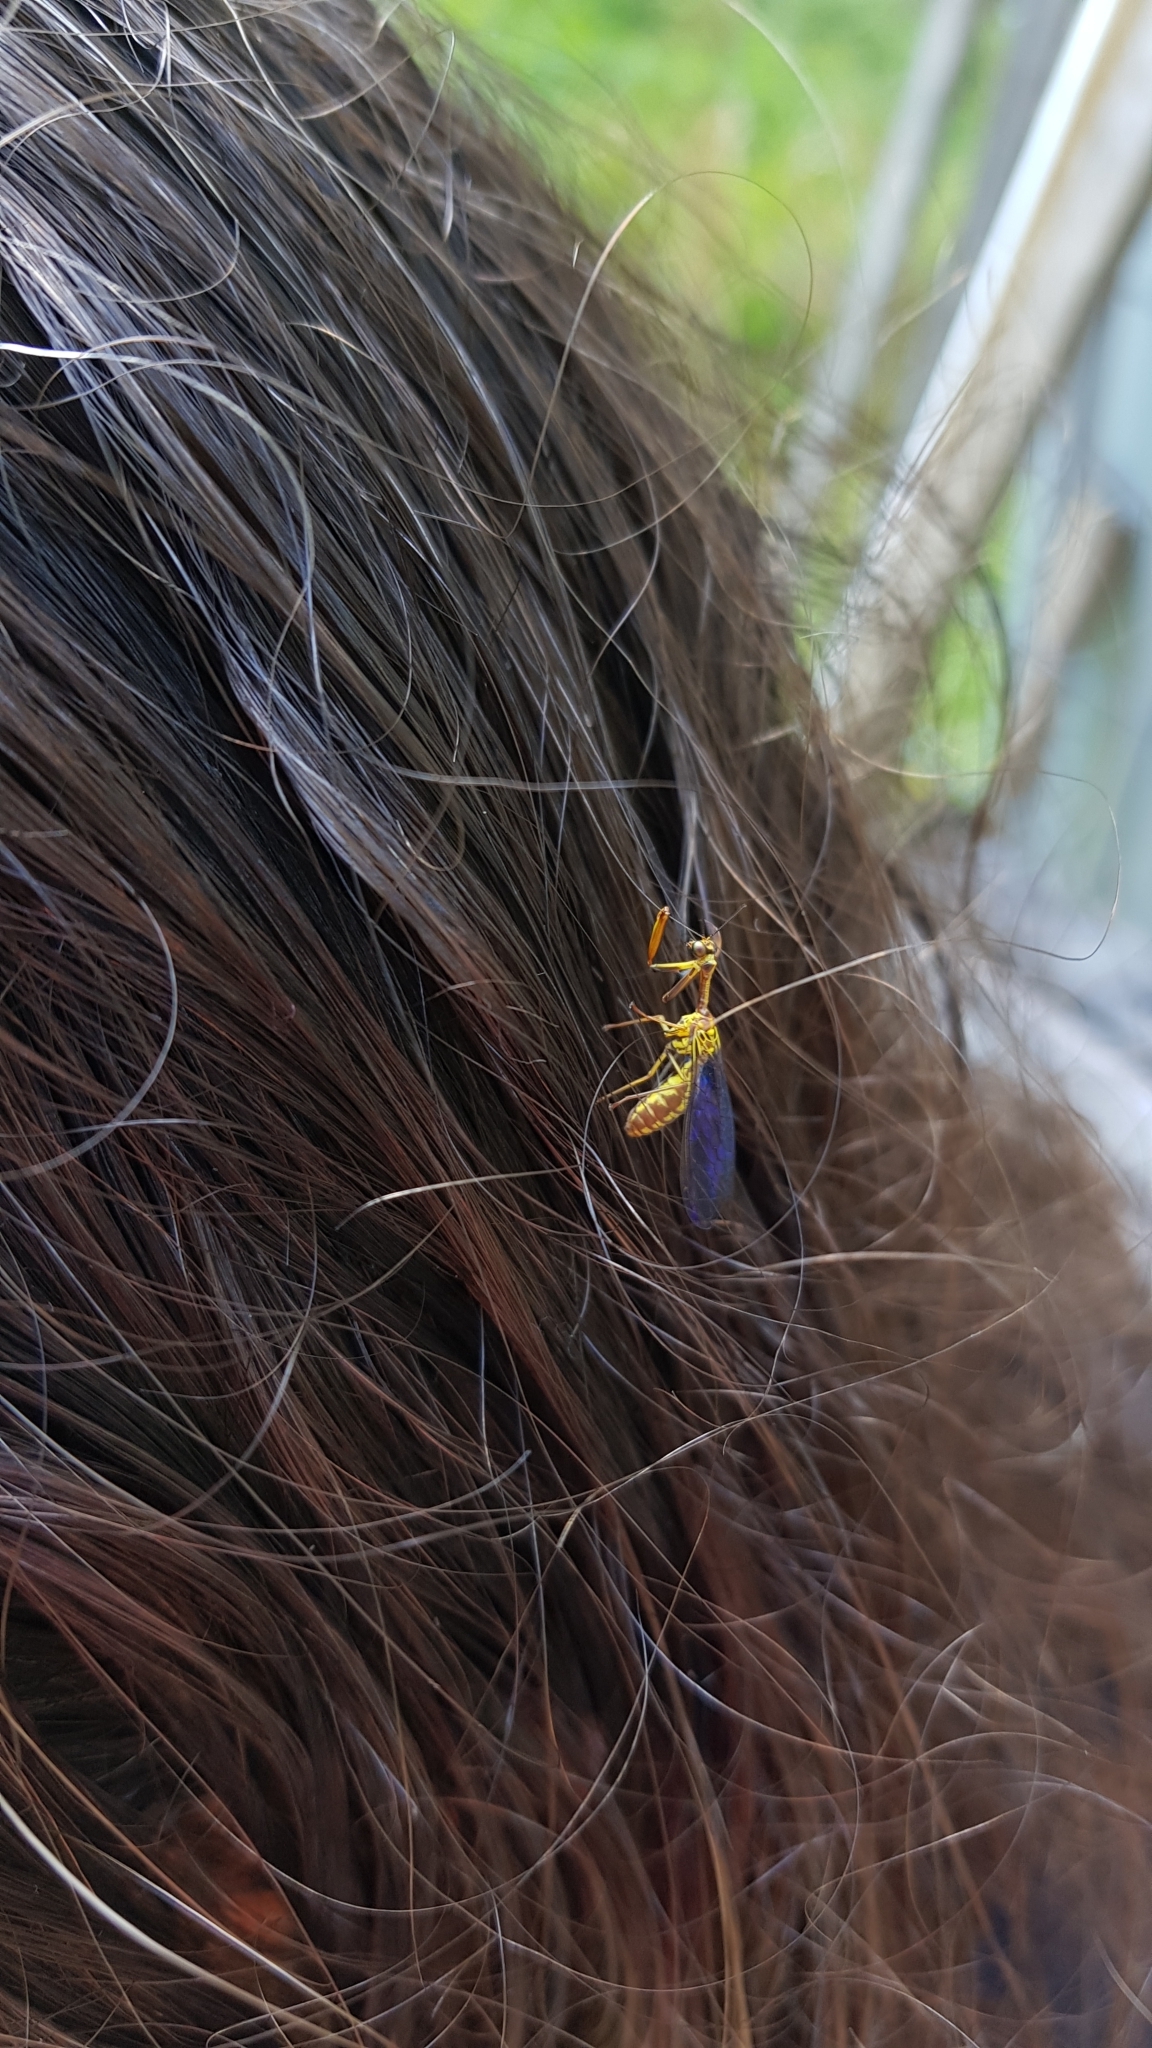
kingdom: Animalia
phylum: Arthropoda
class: Insecta
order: Neuroptera
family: Mantispidae
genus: Spaminta
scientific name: Spaminta minjerribae
